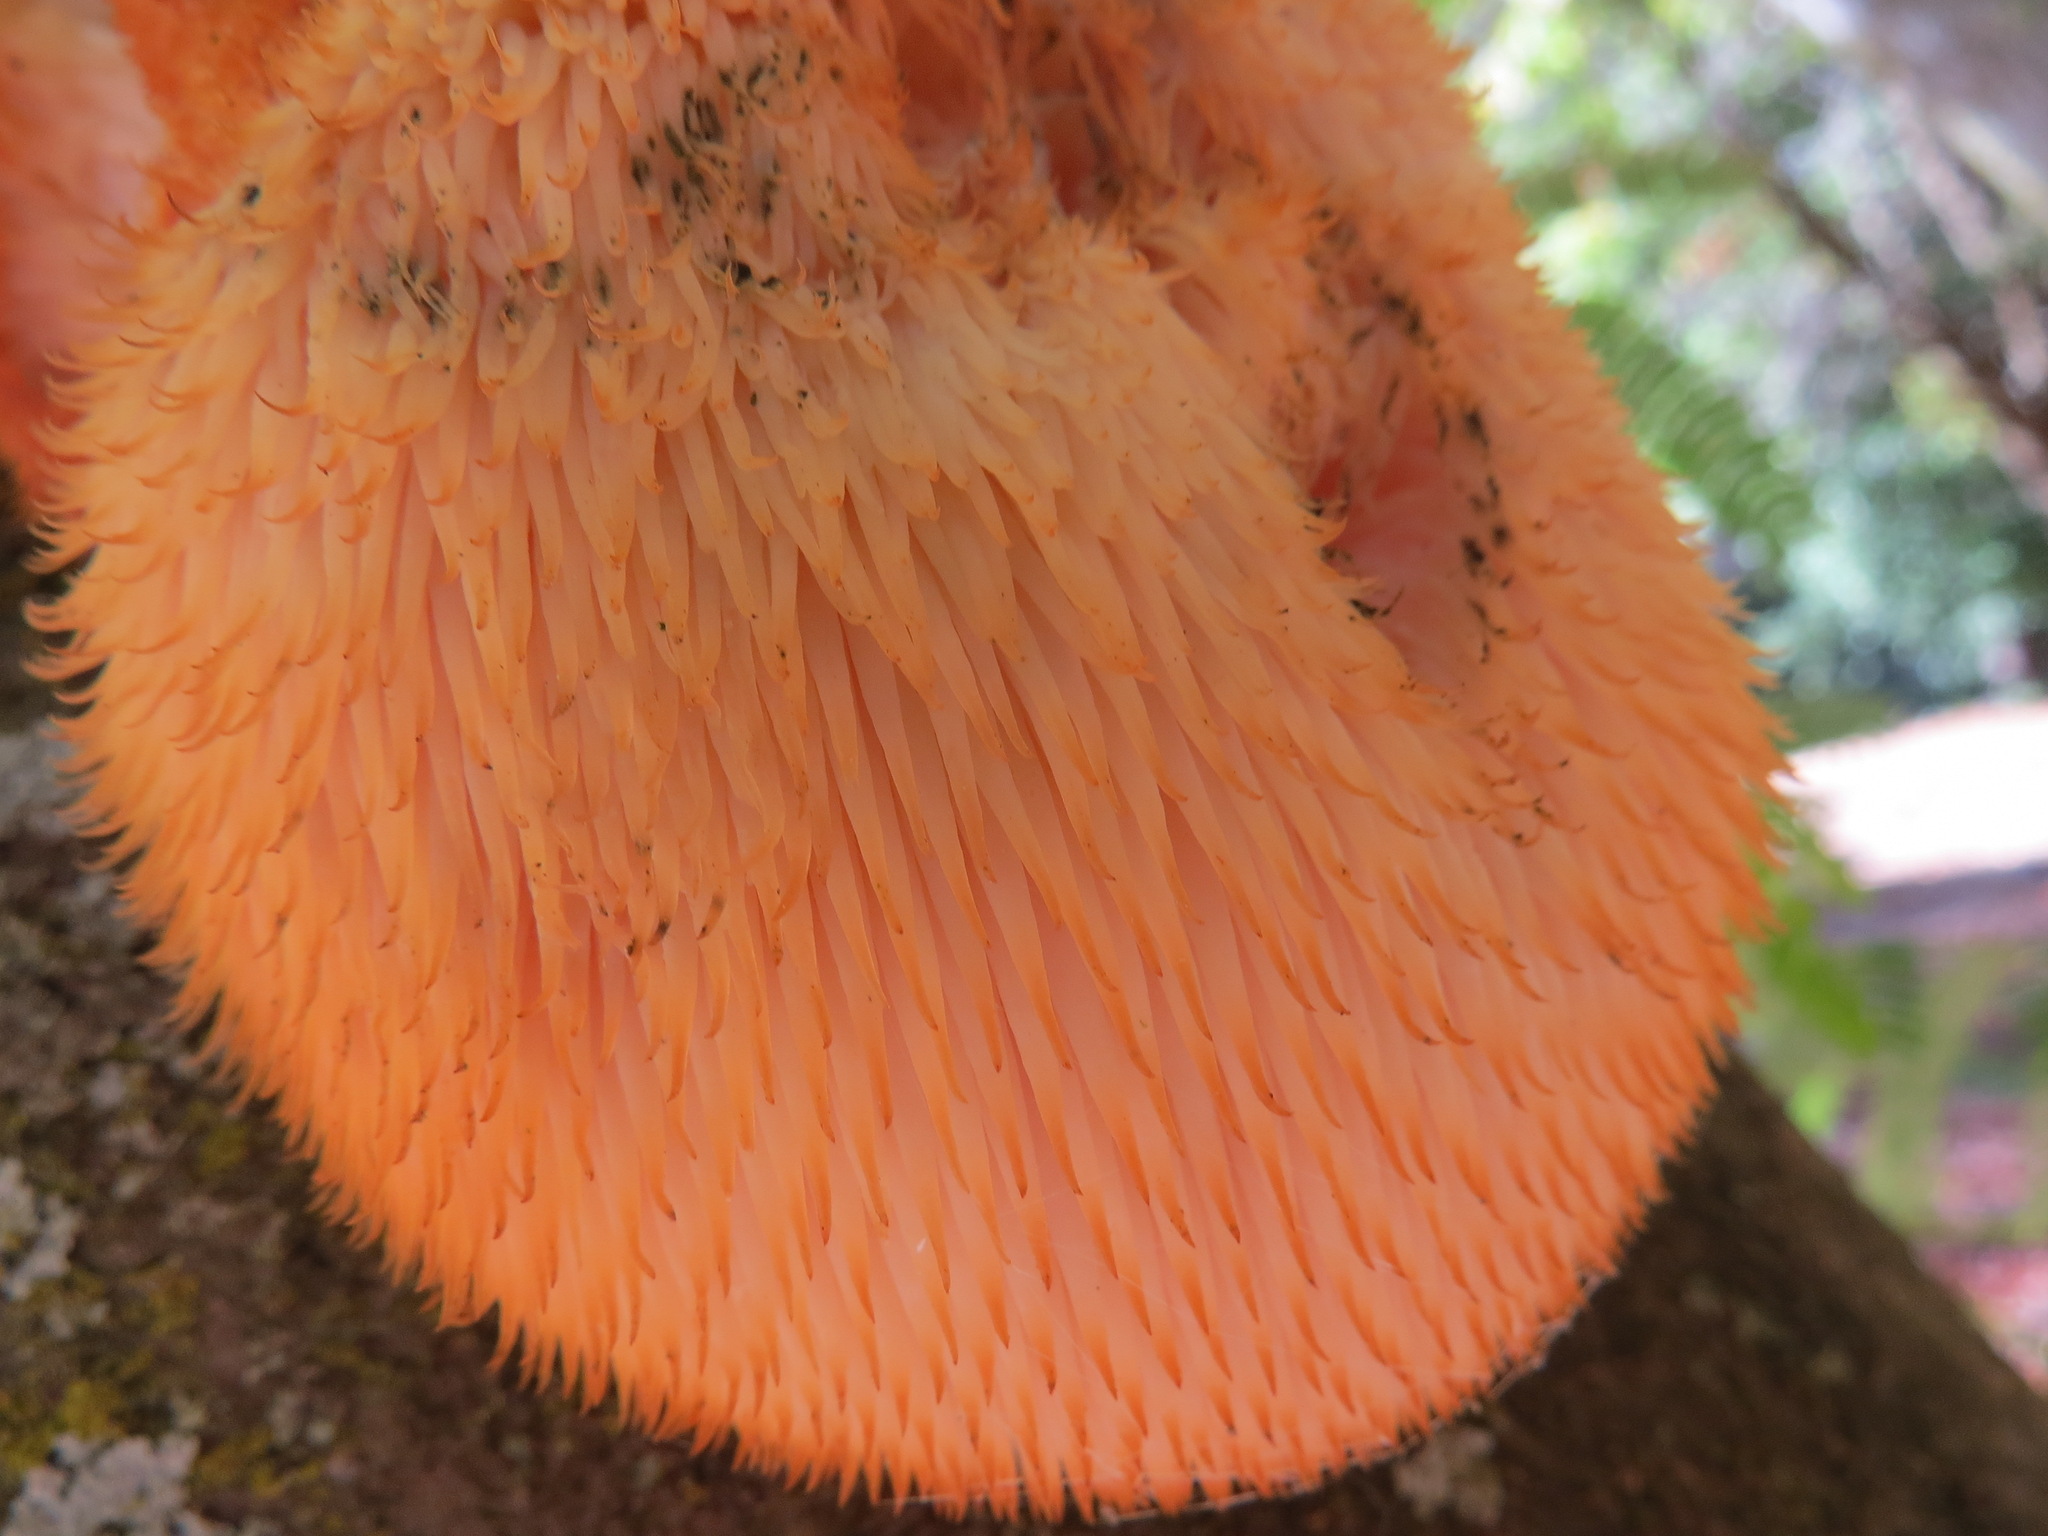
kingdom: Fungi
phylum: Basidiomycota
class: Agaricomycetes
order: Russulales
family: Hericiaceae
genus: Hericium
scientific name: Hericium erinaceus
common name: Bearded tooth
